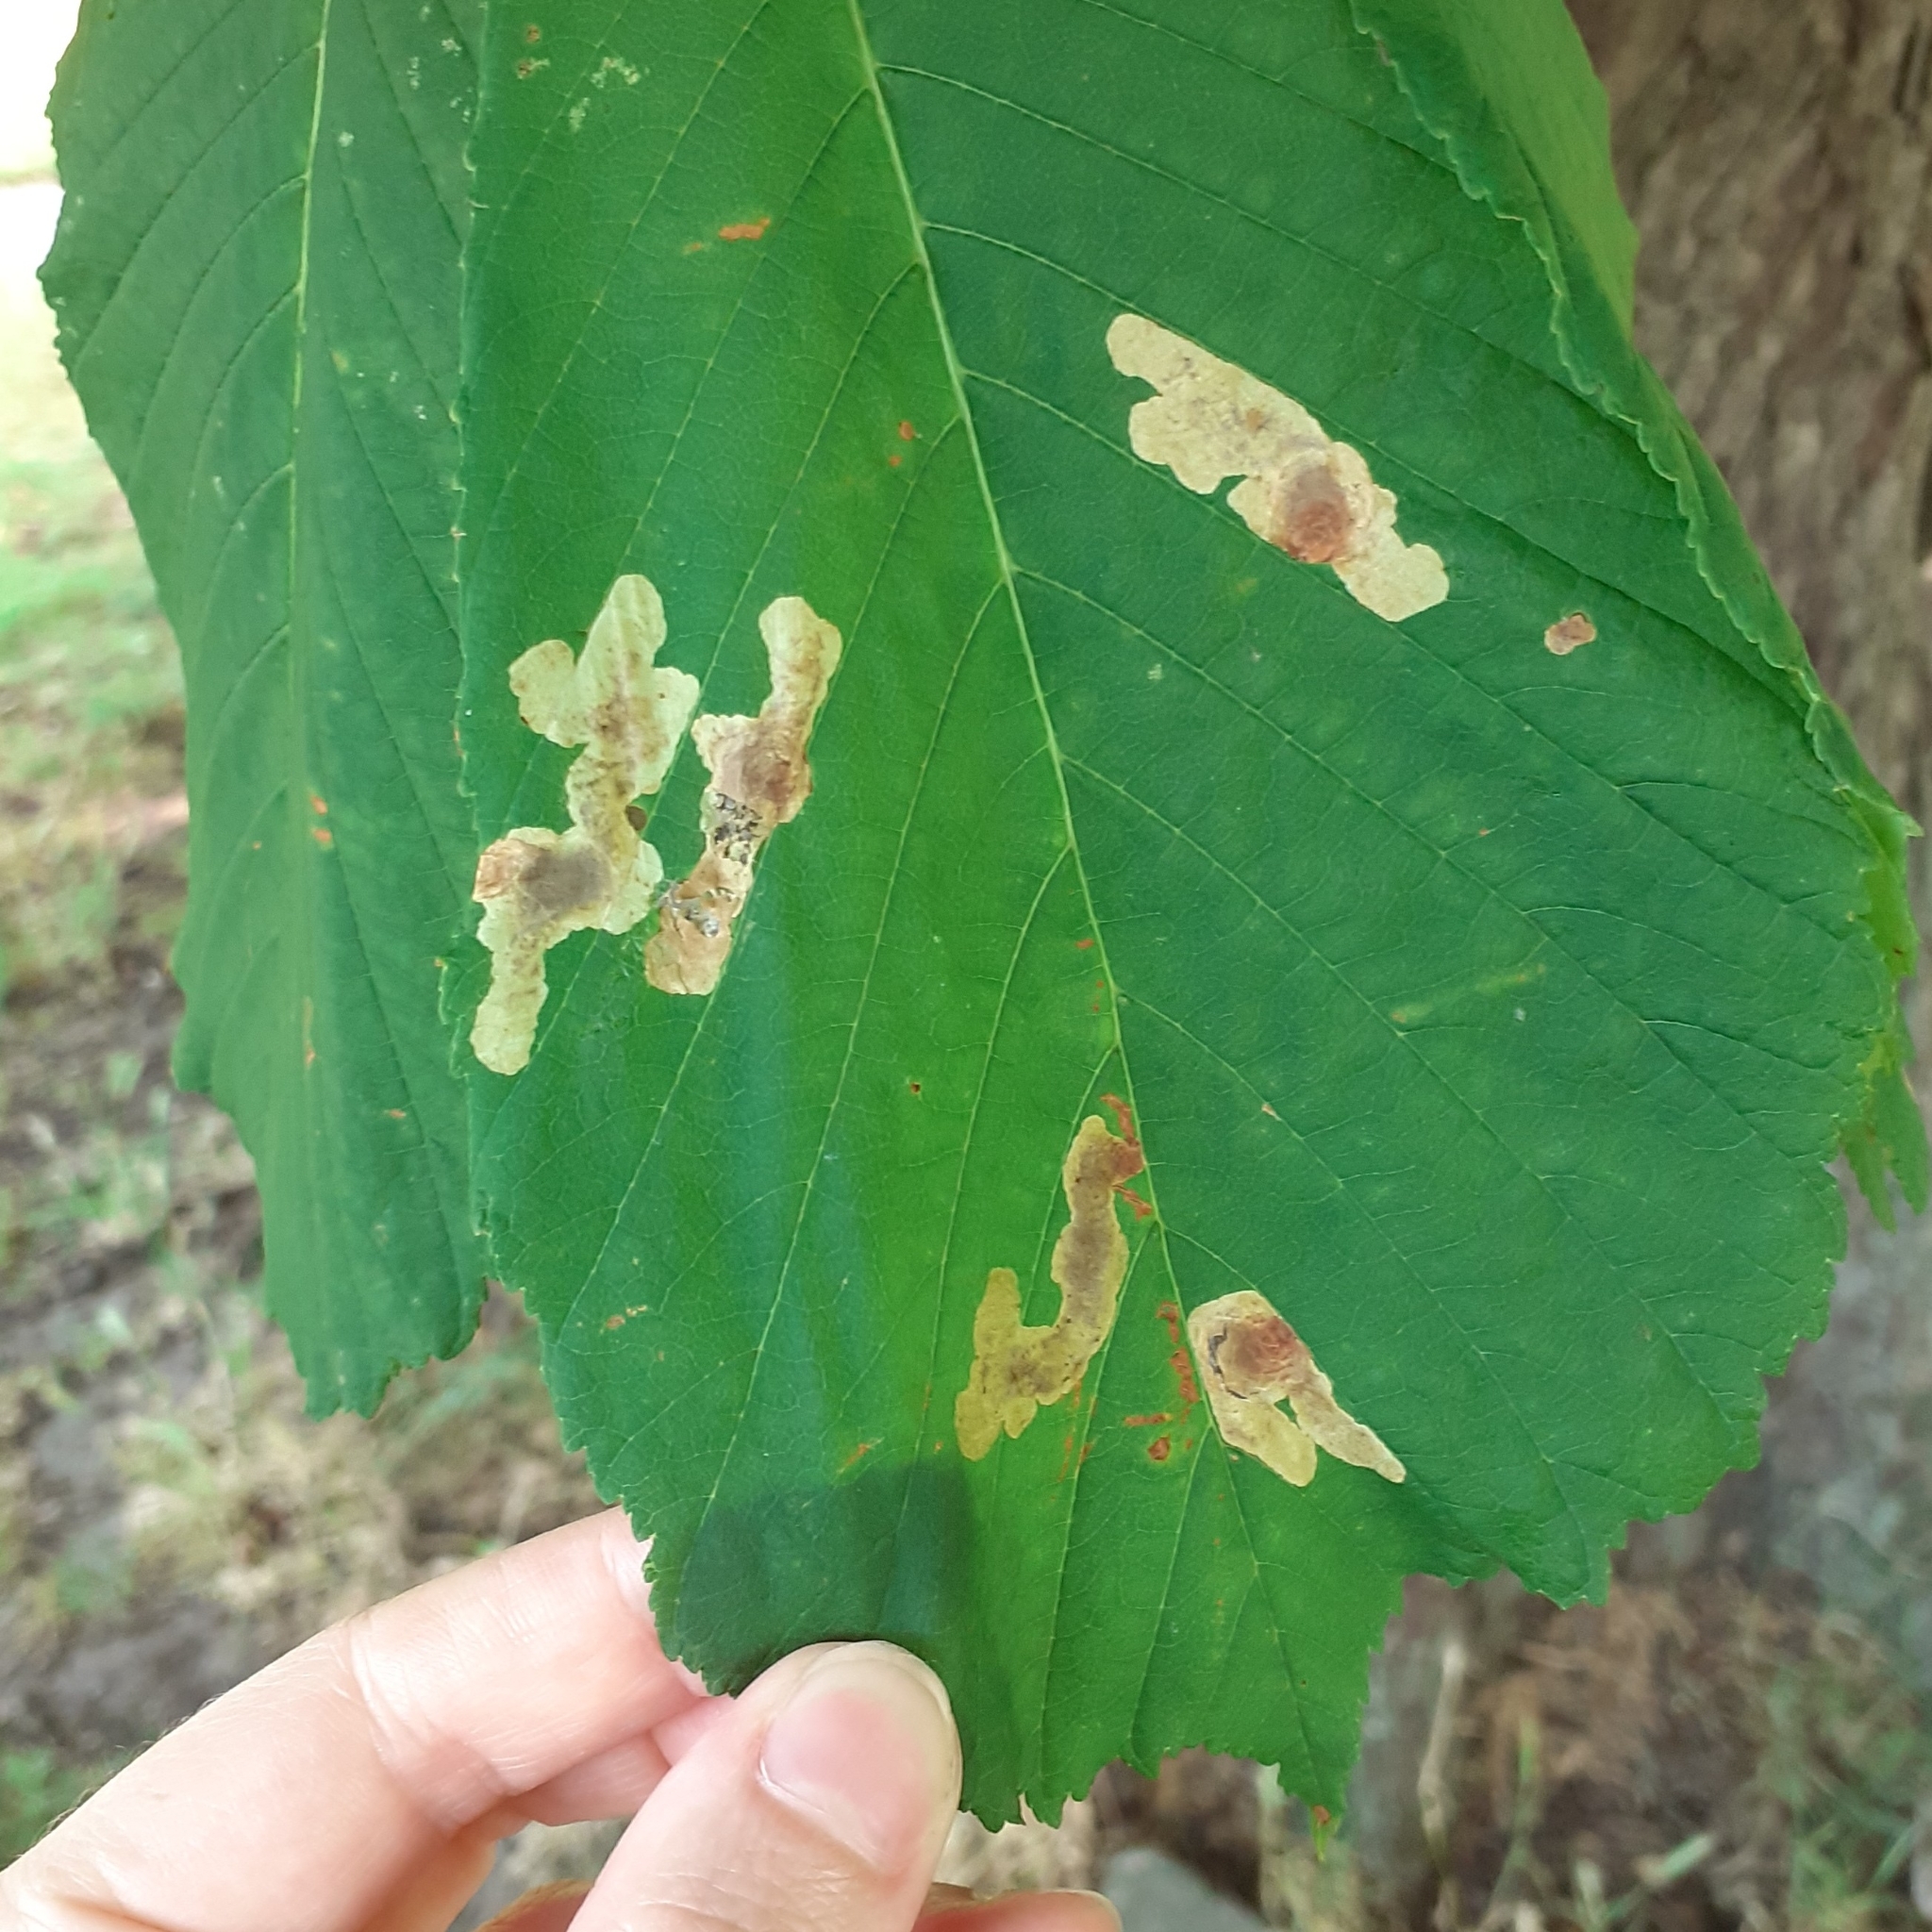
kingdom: Animalia
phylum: Arthropoda
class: Insecta
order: Lepidoptera
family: Gracillariidae
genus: Cameraria
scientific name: Cameraria ohridella
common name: Horse-chestnut leaf-miner
